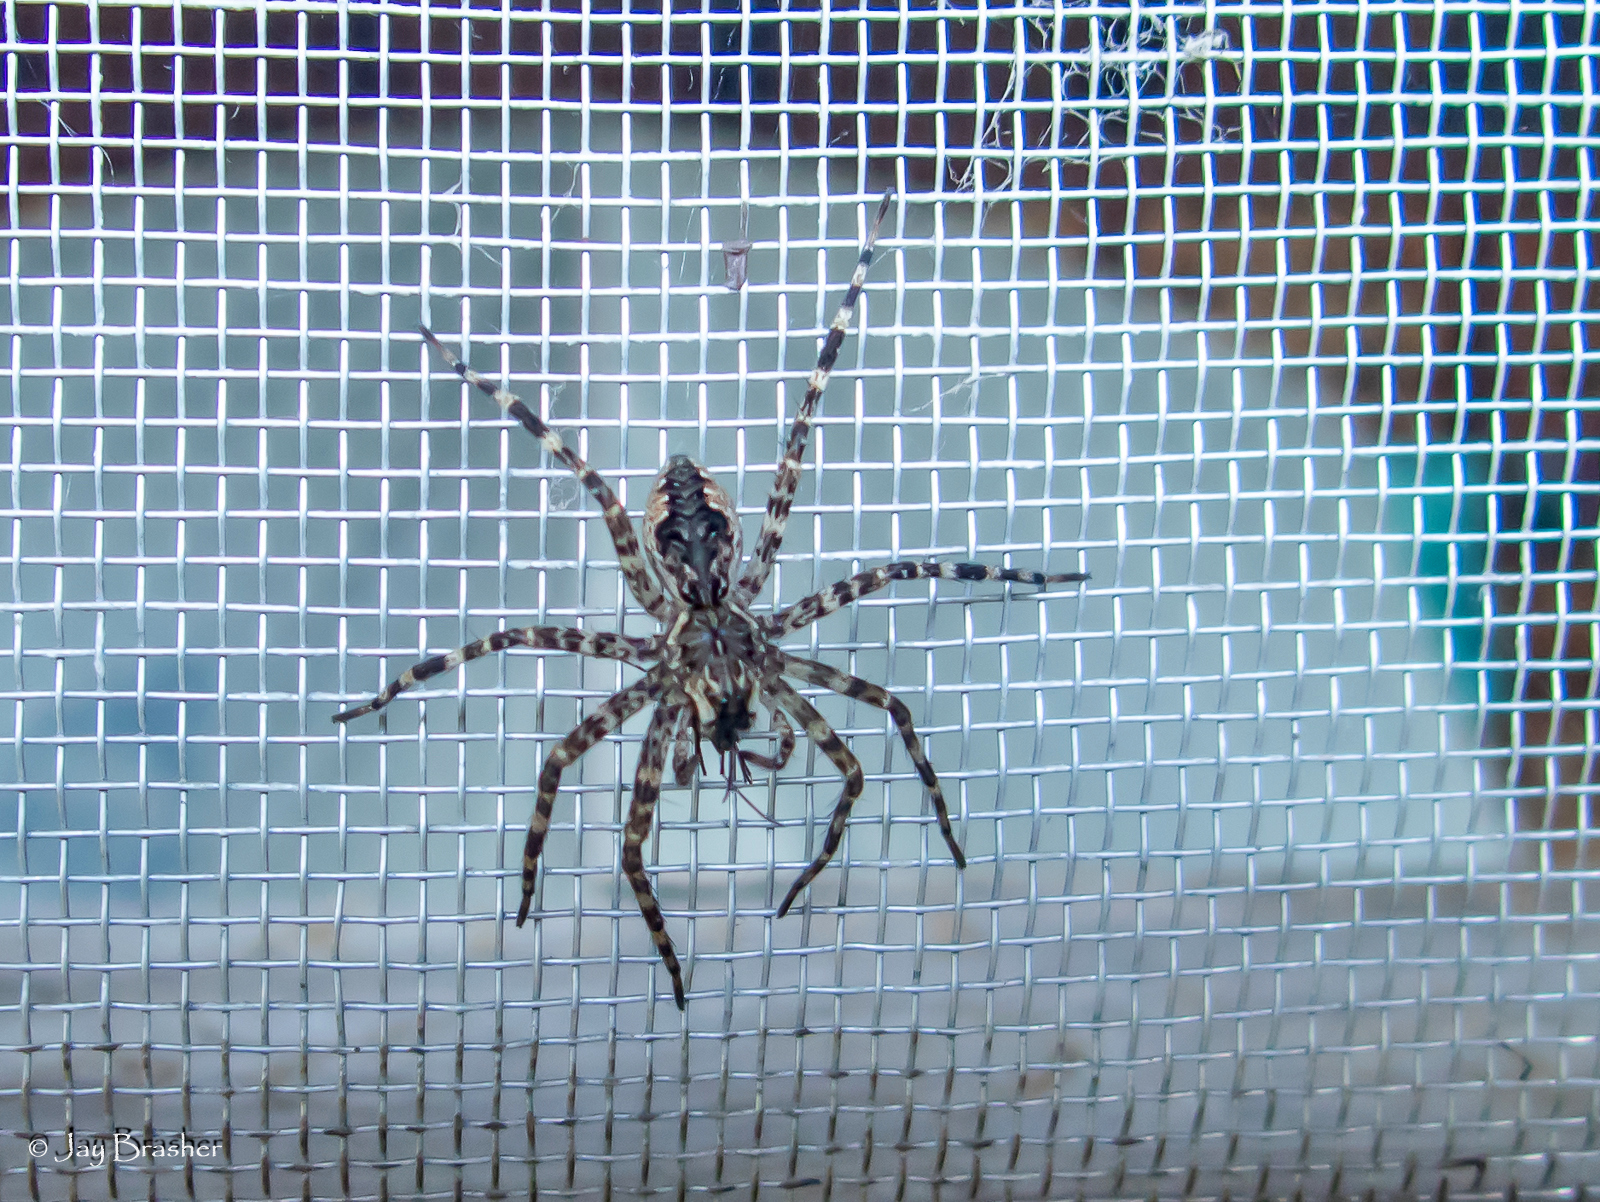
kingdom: Animalia
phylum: Arthropoda
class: Arachnida
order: Araneae
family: Pisauridae
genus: Dolomedes
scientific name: Dolomedes tenebrosus
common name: Dark fishing spider
